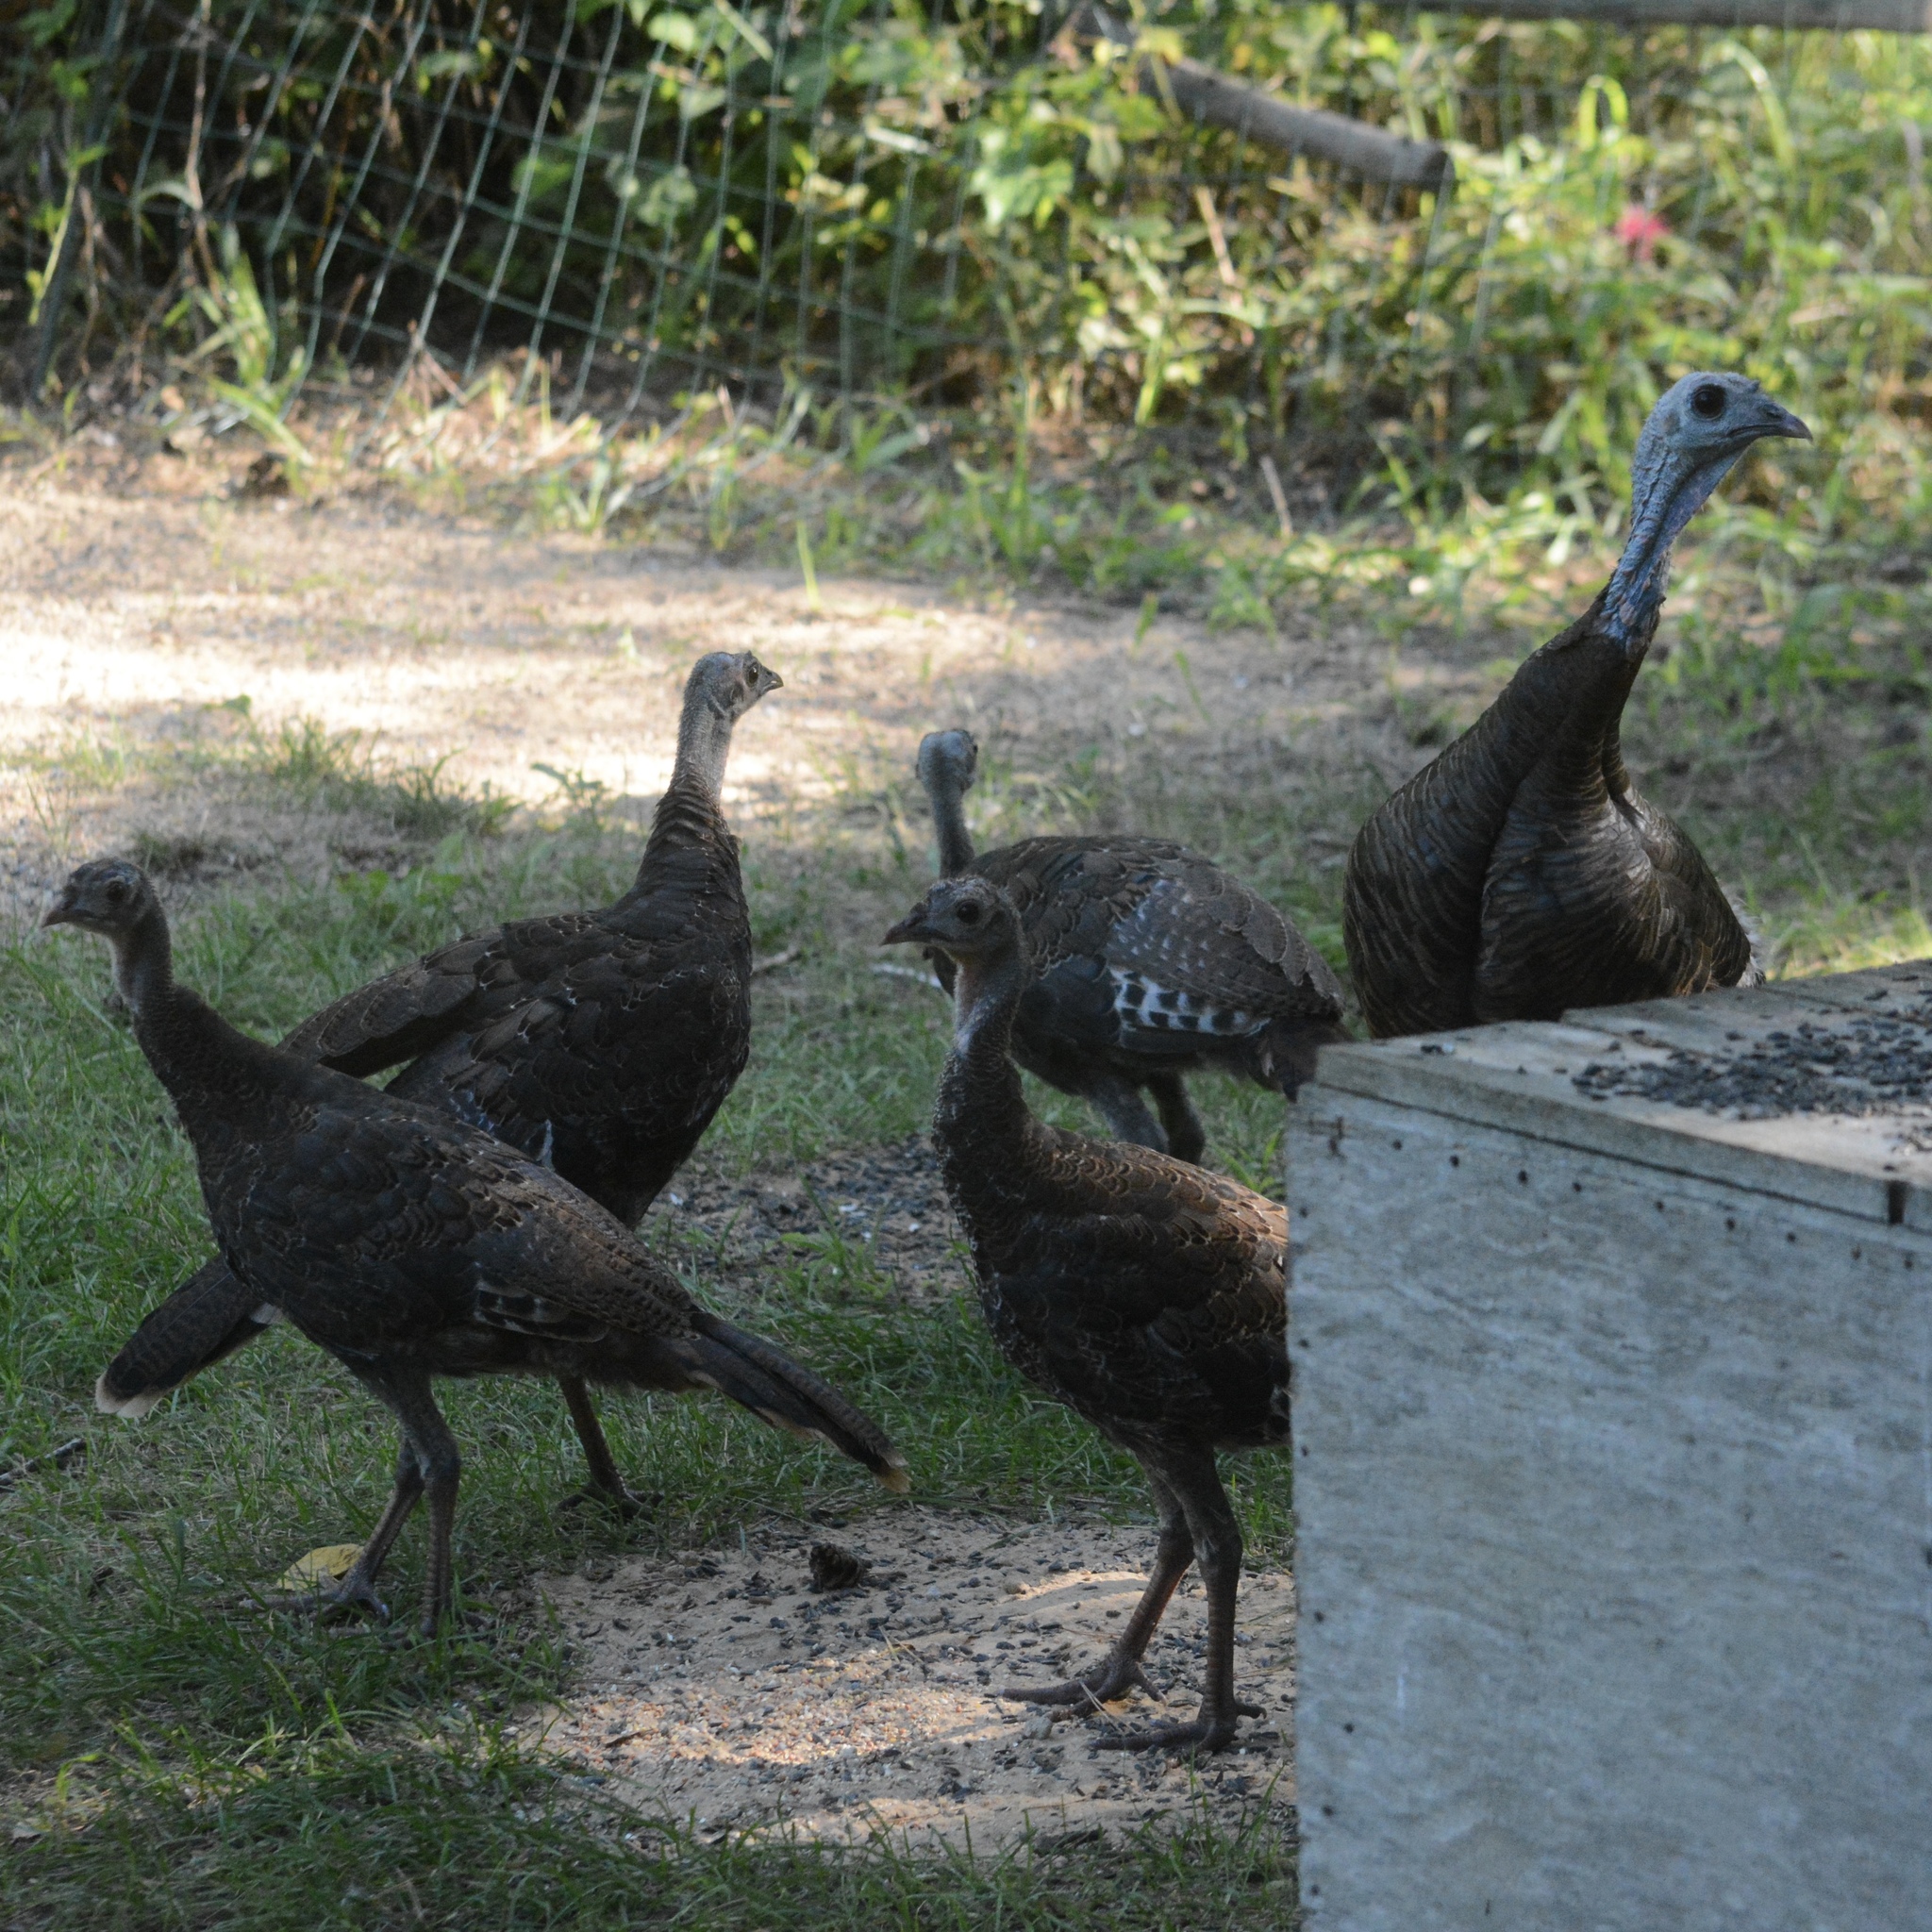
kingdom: Animalia
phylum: Chordata
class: Aves
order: Galliformes
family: Phasianidae
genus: Meleagris
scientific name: Meleagris gallopavo
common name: Wild turkey
